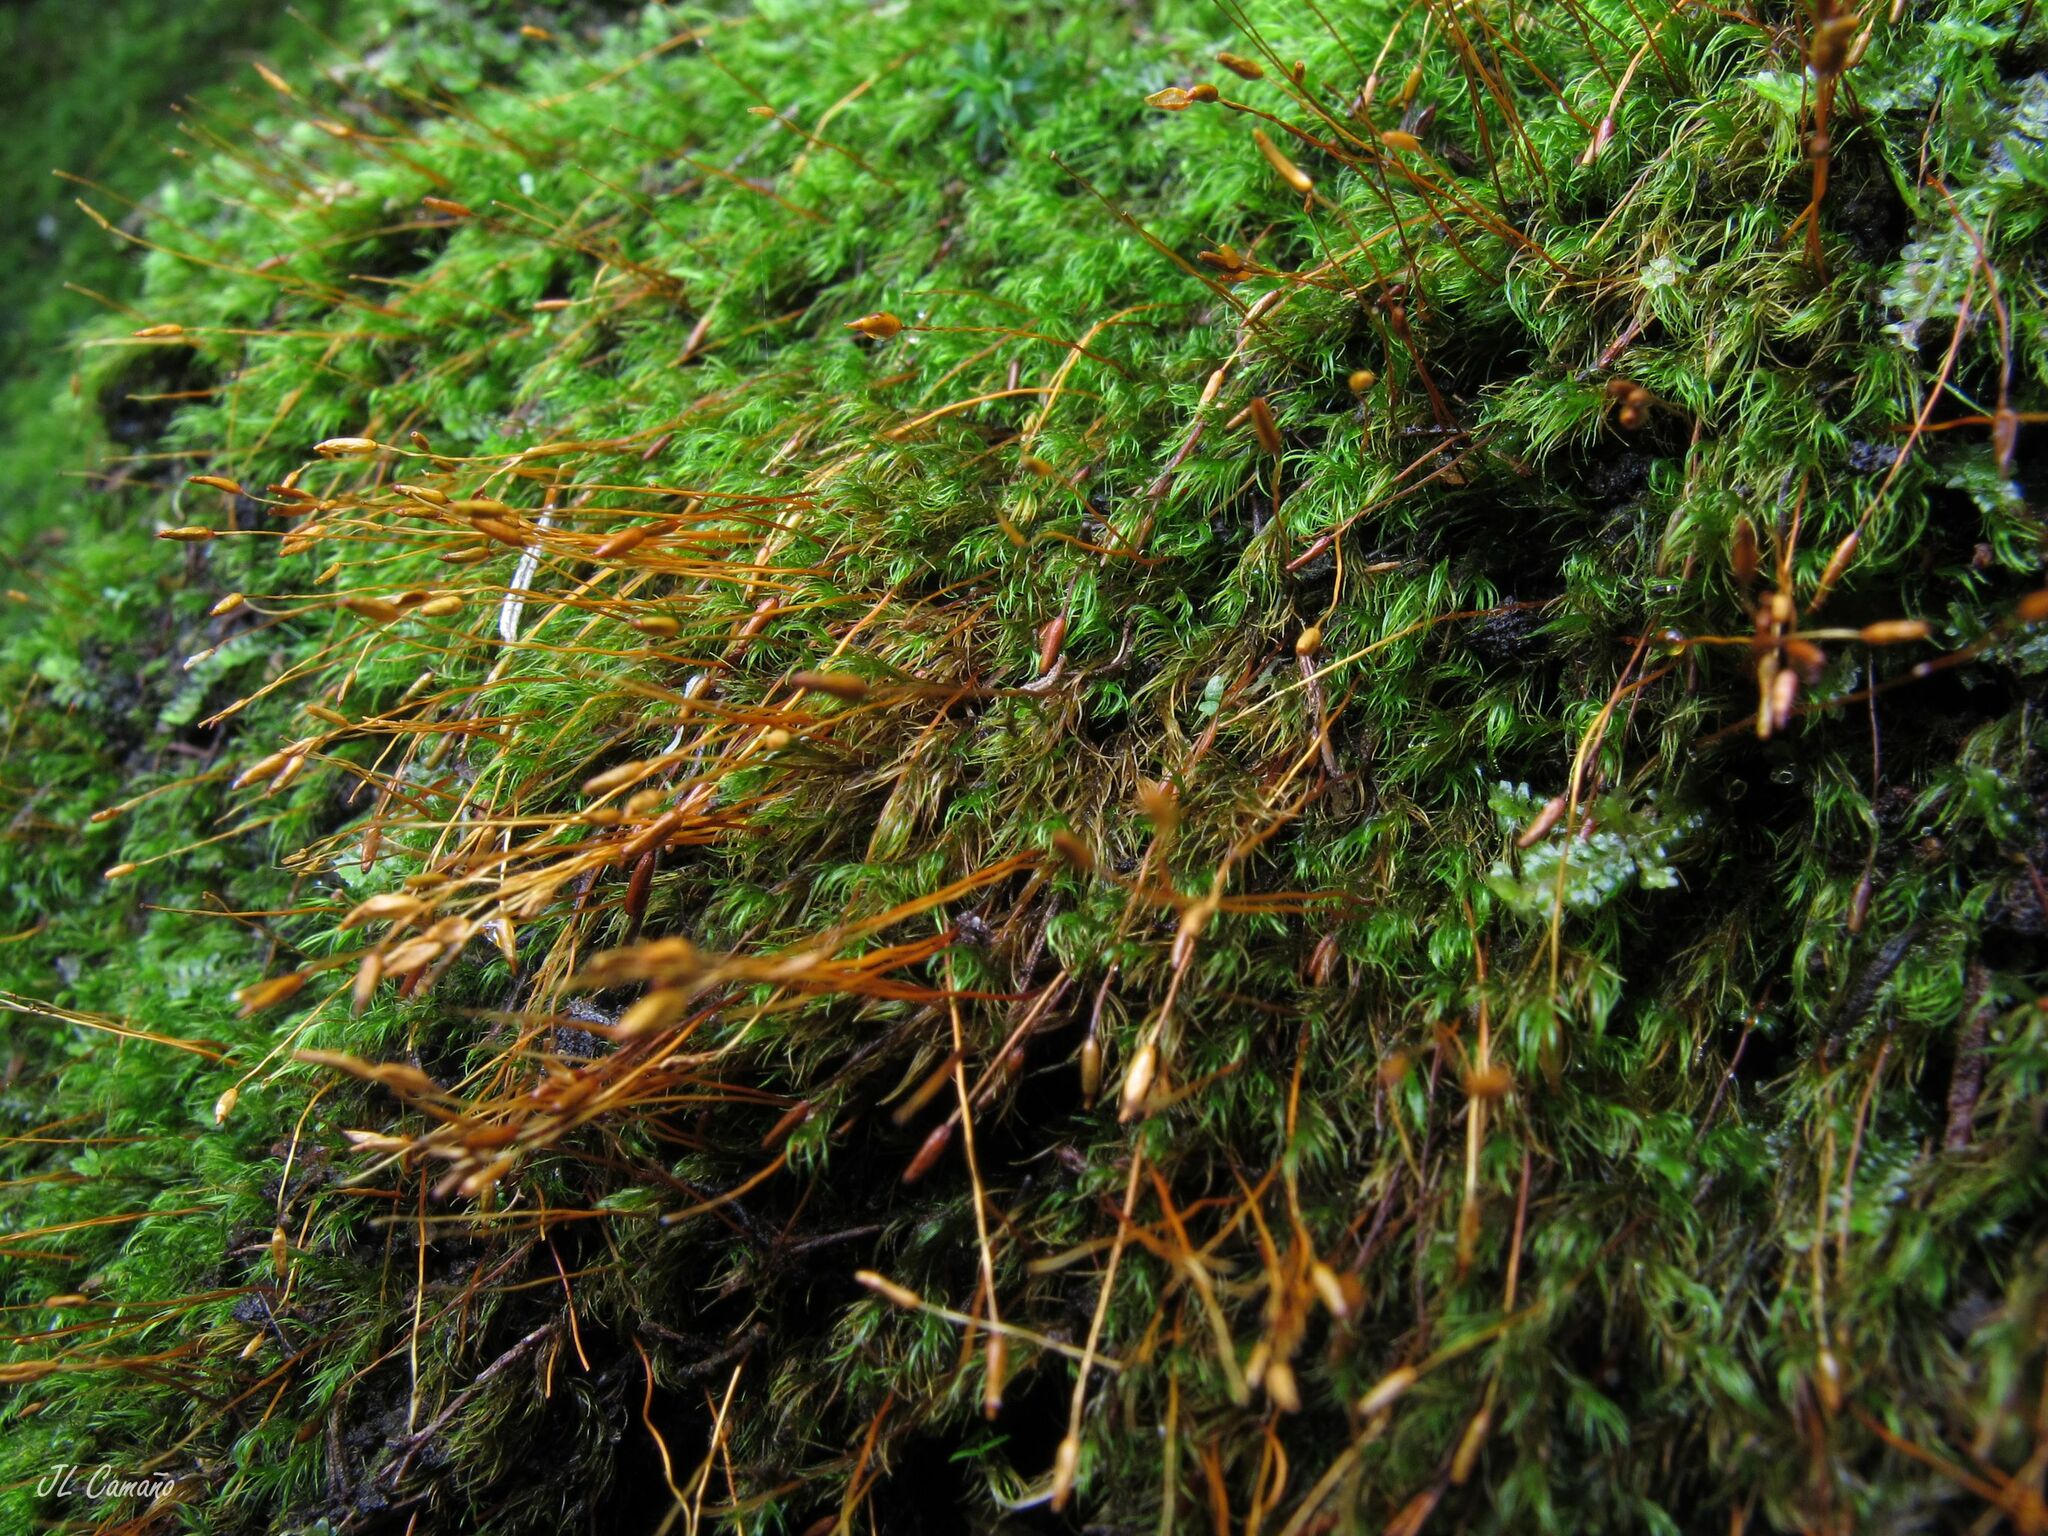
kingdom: Plantae
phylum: Bryophyta
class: Bryopsida
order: Dicranales
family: Ditrichaceae
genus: Ditrichum
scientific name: Ditrichum heteromallum
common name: Curve-leaved ditrichum
